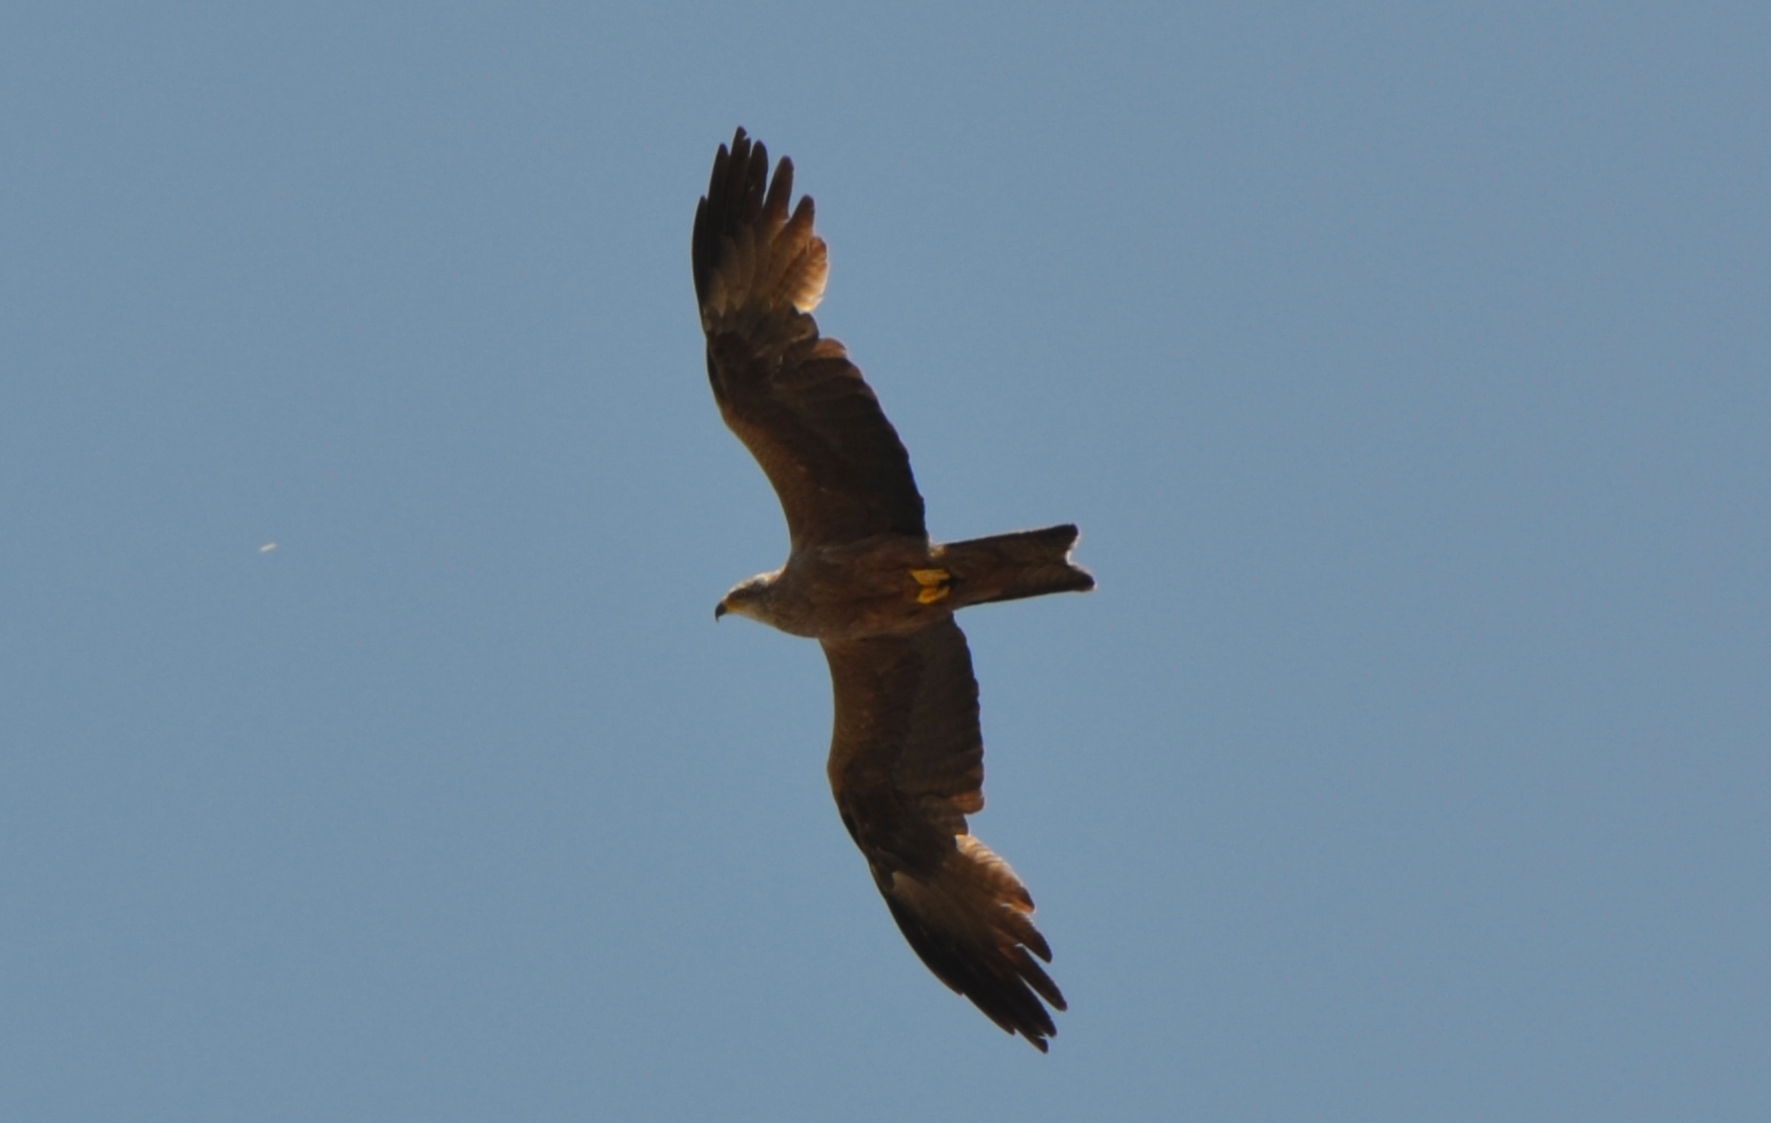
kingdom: Animalia
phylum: Chordata
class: Aves
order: Accipitriformes
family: Accipitridae
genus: Milvus
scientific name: Milvus migrans
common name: Black kite
